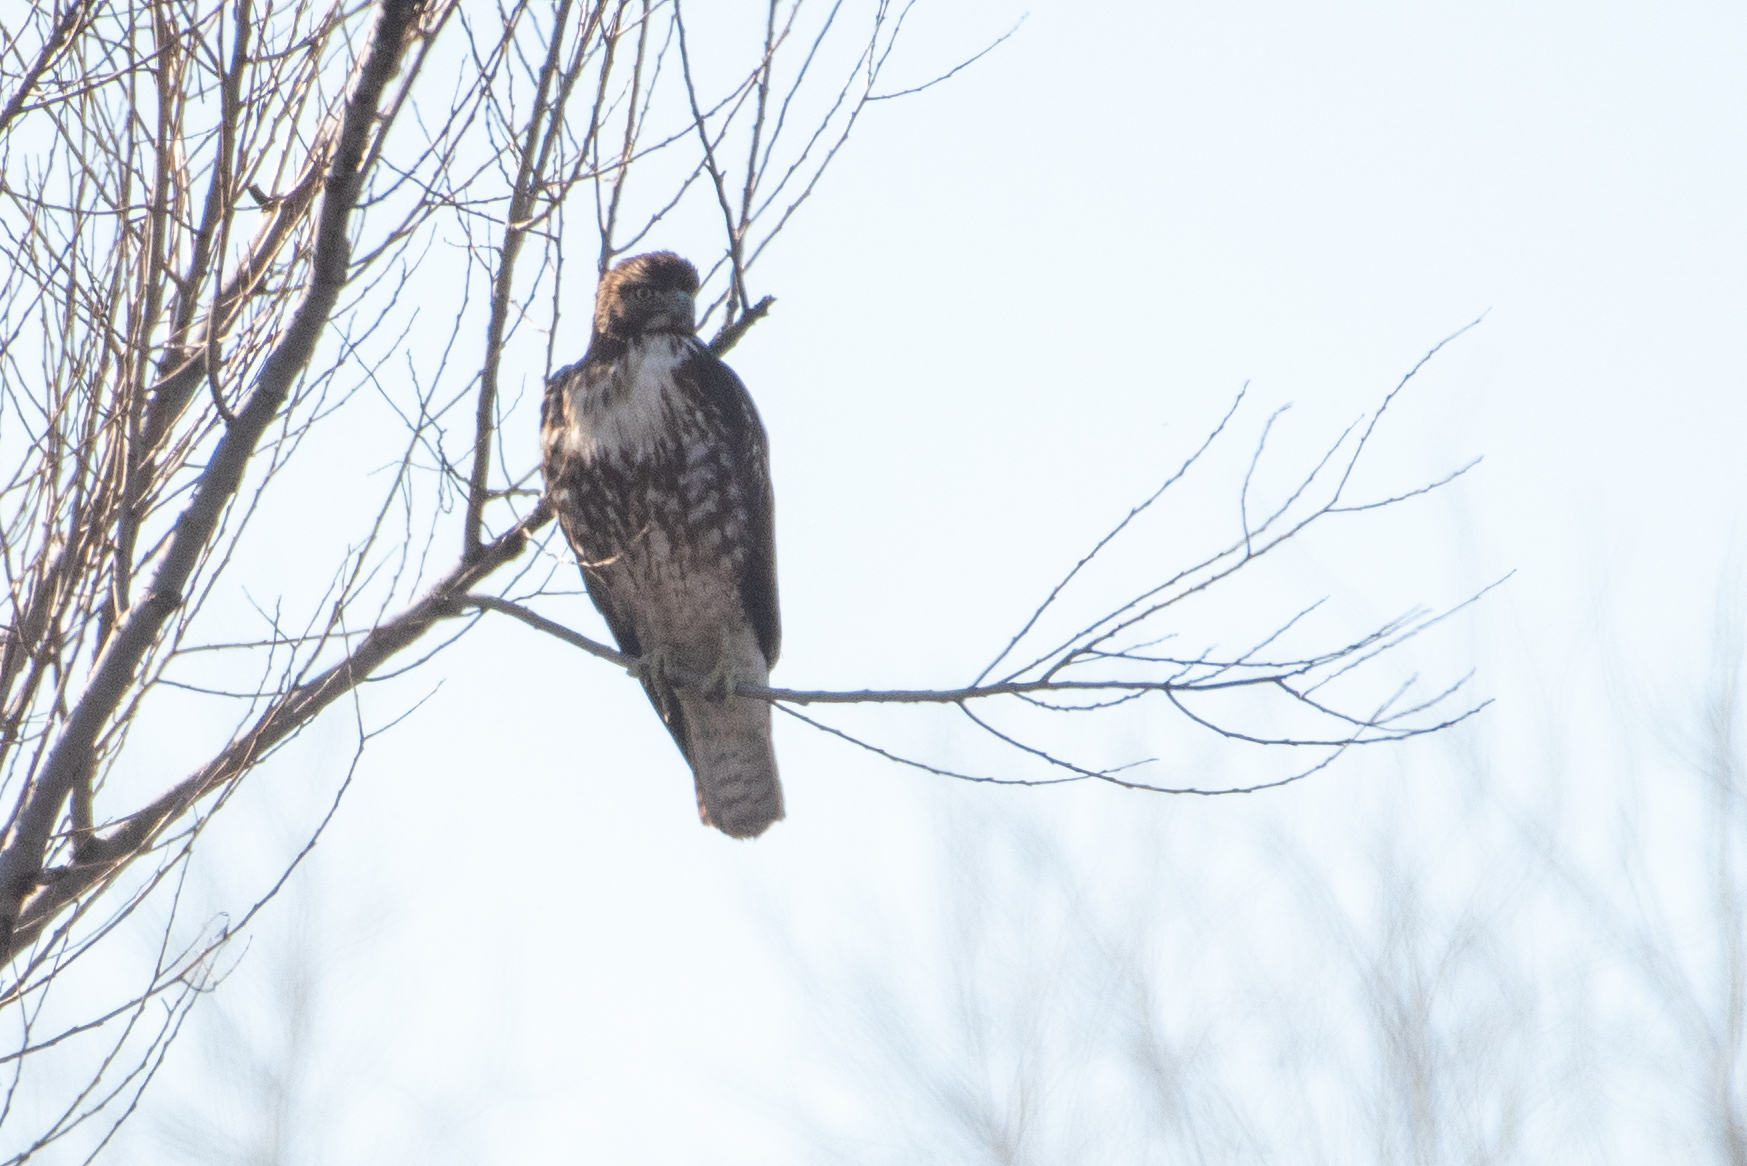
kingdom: Animalia
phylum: Chordata
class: Aves
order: Accipitriformes
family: Accipitridae
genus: Buteo
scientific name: Buteo jamaicensis
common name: Red-tailed hawk
